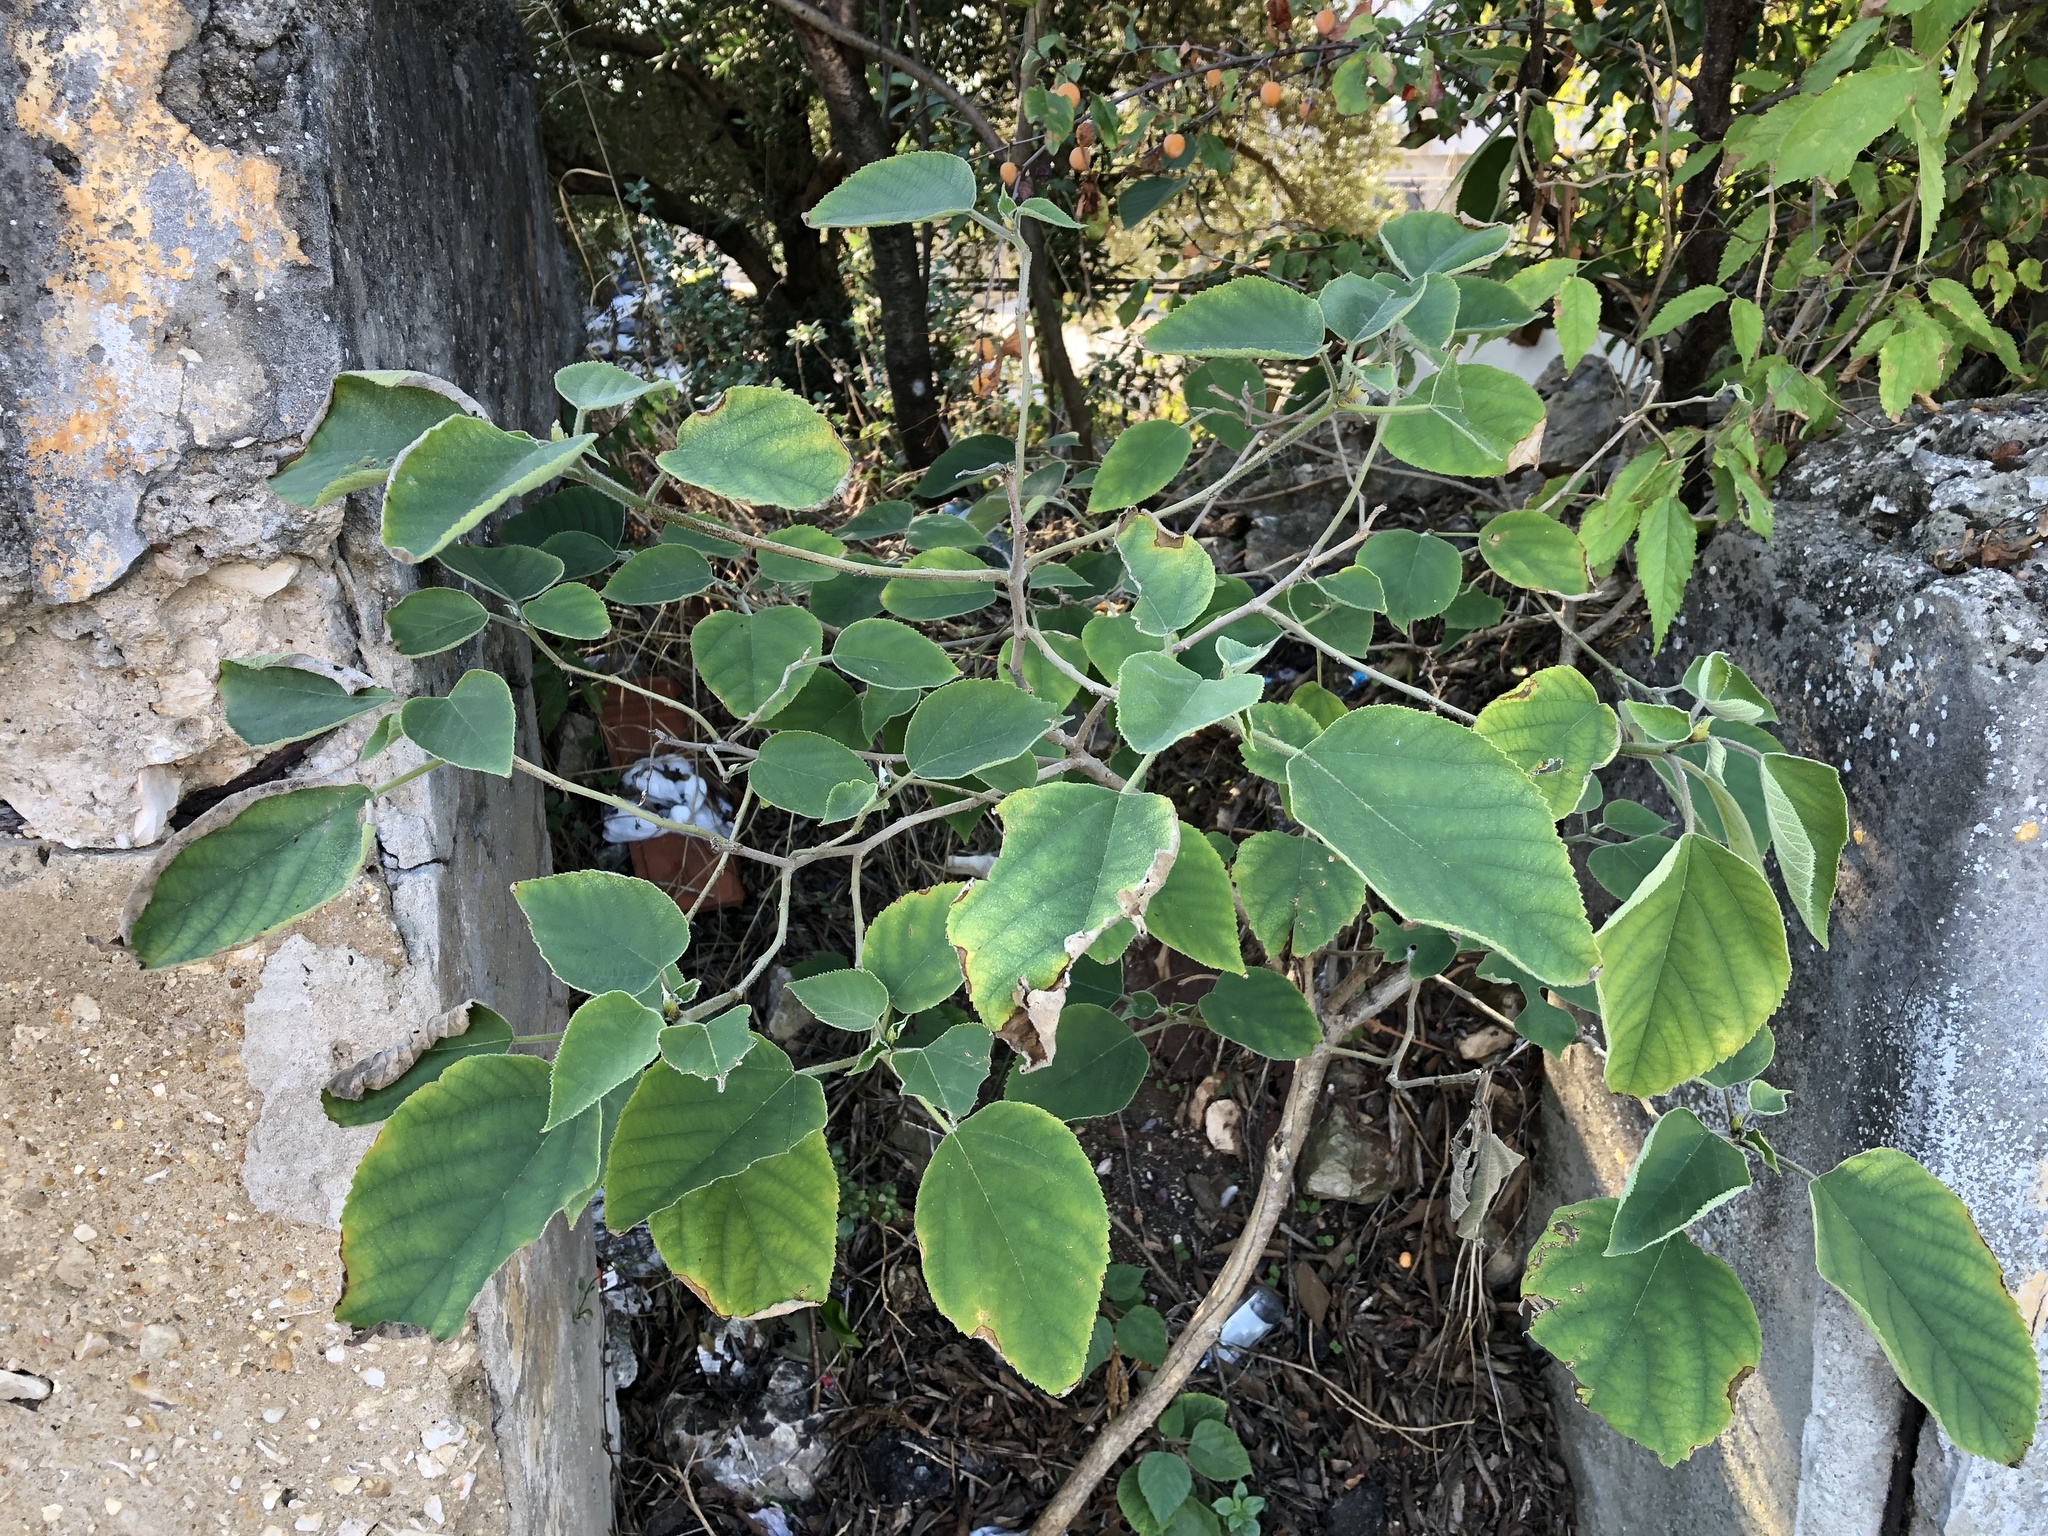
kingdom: Plantae
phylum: Tracheophyta
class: Magnoliopsida
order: Rosales
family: Moraceae
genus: Broussonetia
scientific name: Broussonetia papyrifera
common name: Paper mulberry
